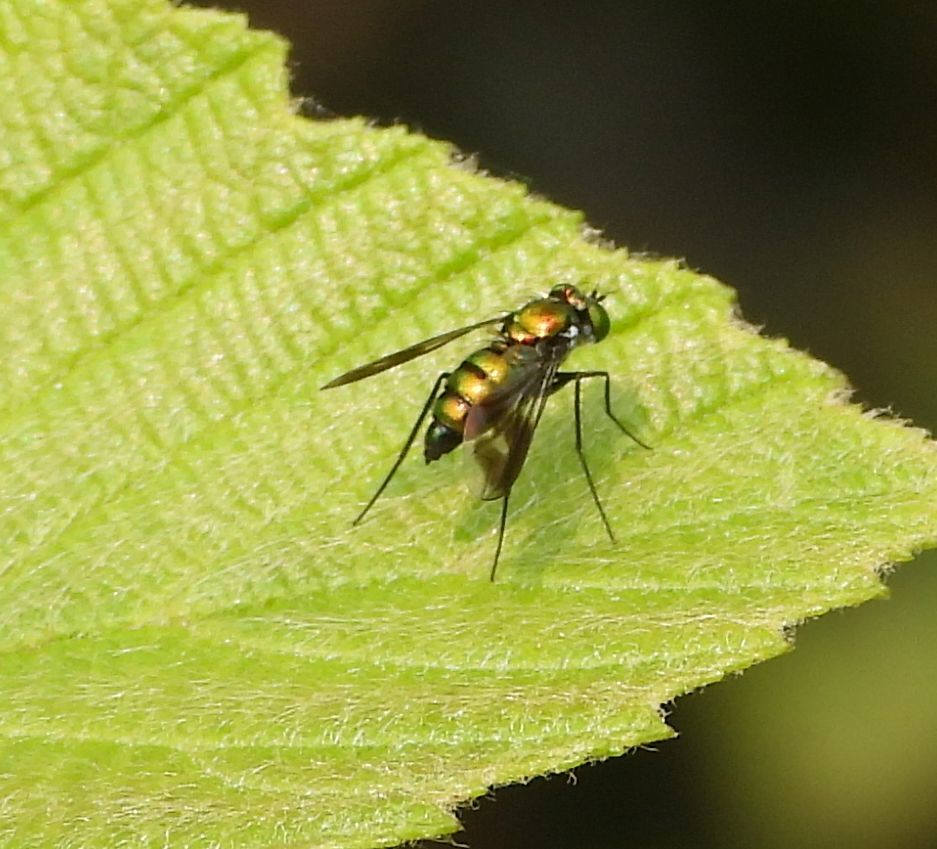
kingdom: Animalia
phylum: Arthropoda
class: Insecta
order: Diptera
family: Dolichopodidae
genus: Condylostylus
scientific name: Condylostylus patibulatus
